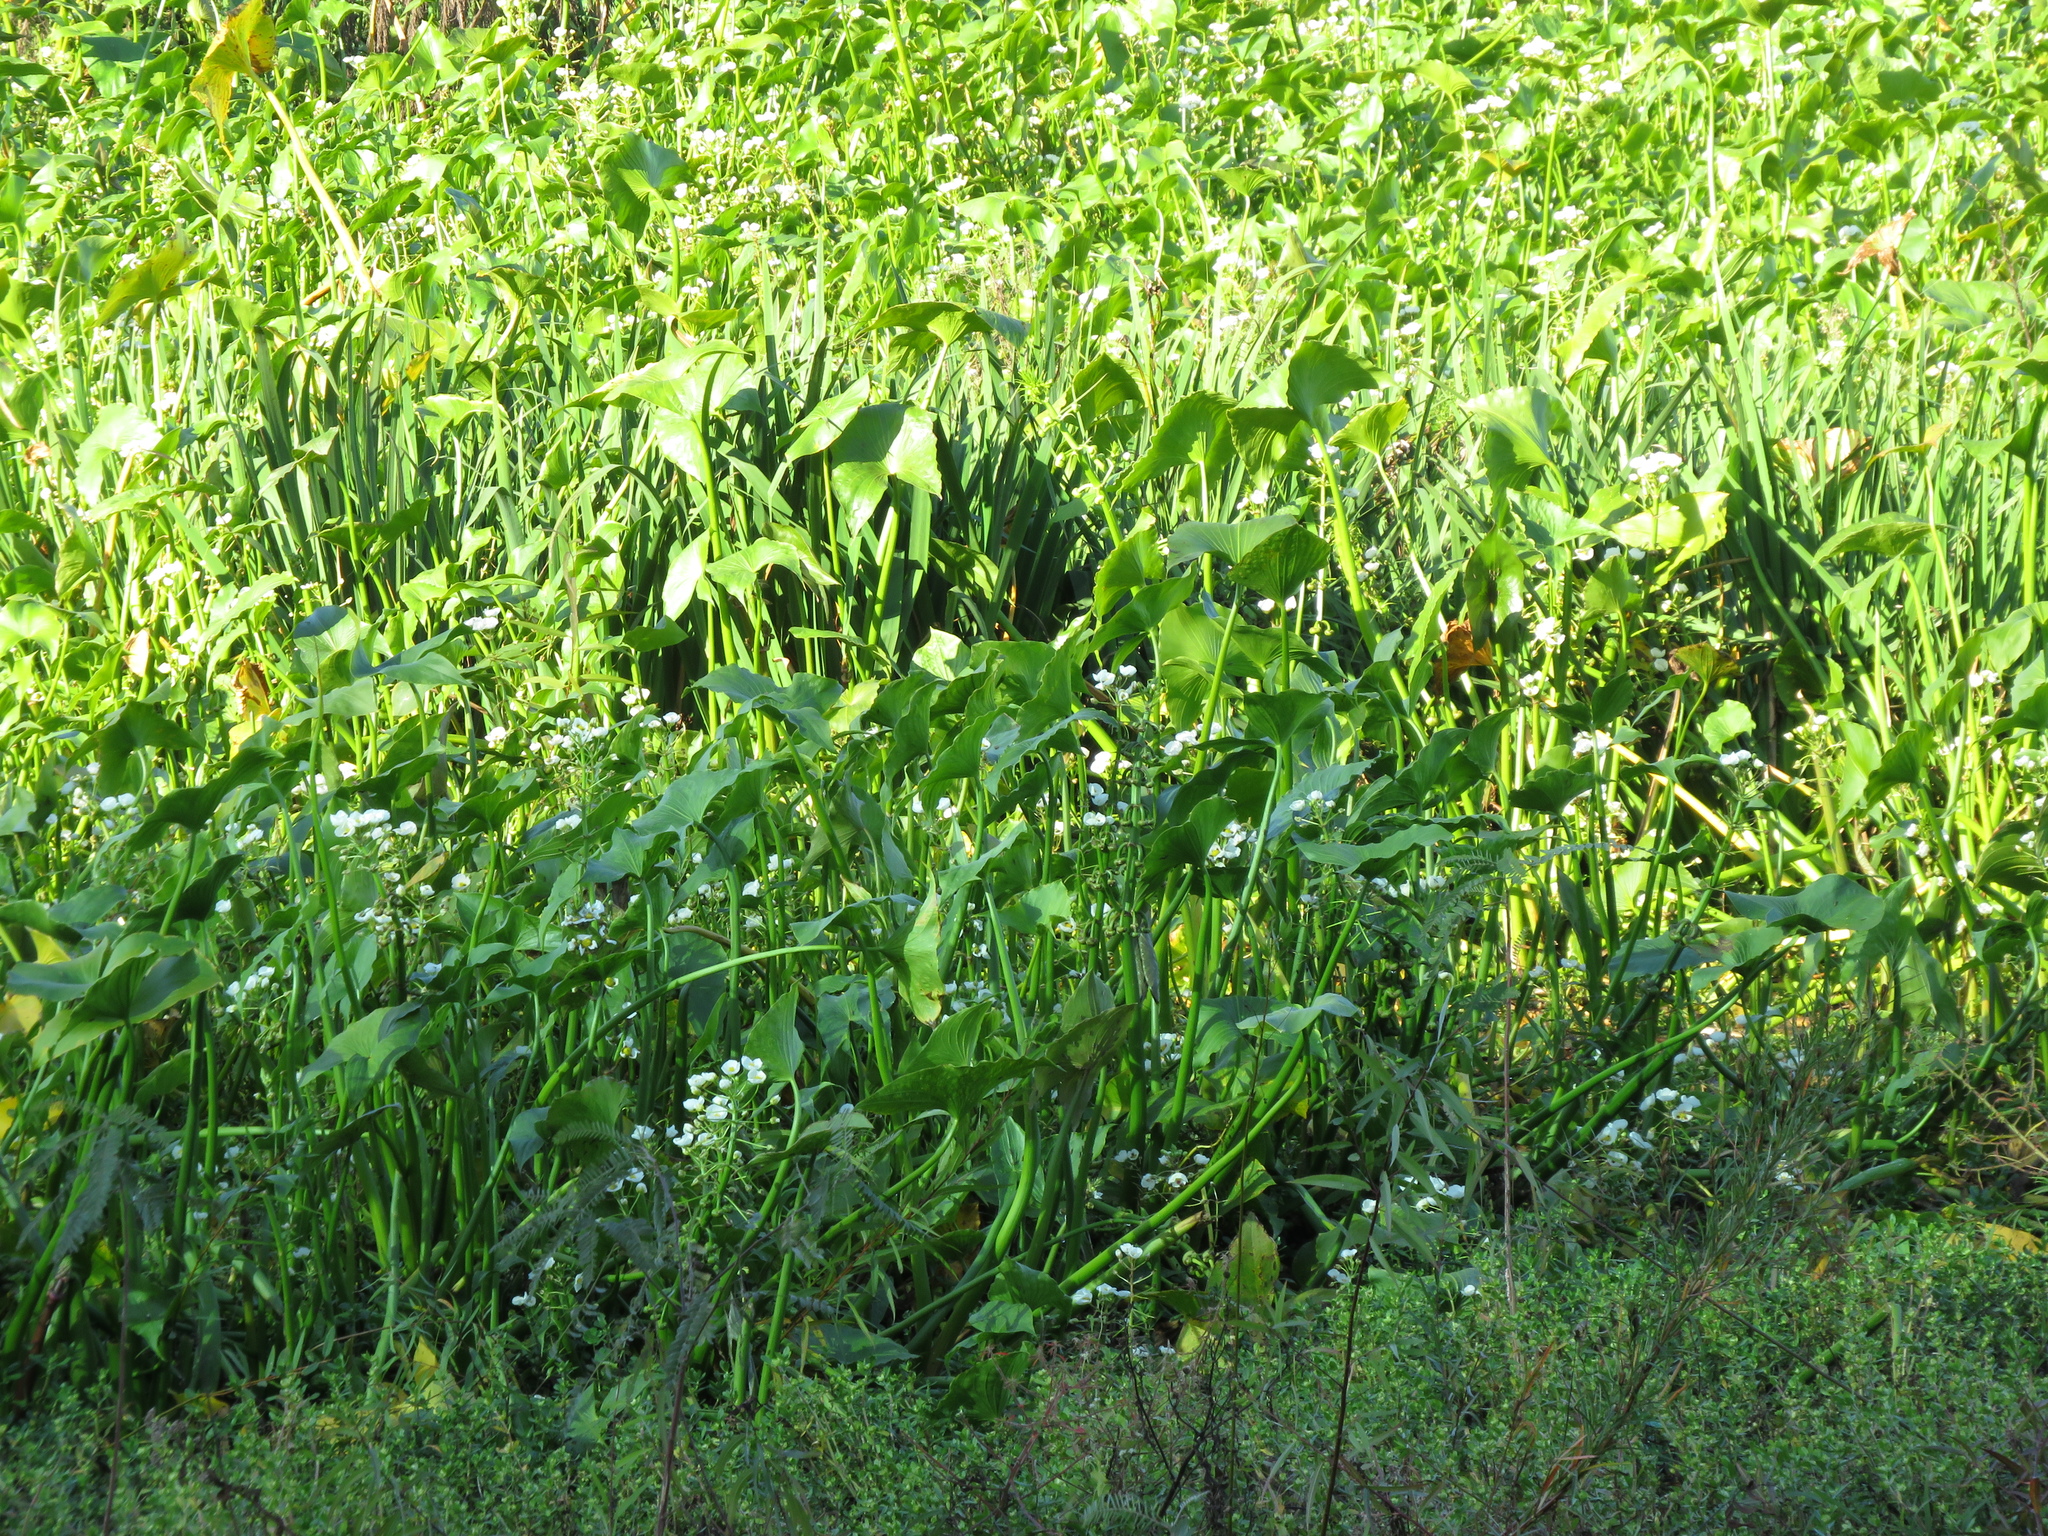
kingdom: Plantae
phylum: Tracheophyta
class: Liliopsida
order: Alismatales
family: Alismataceae
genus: Sagittaria
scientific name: Sagittaria montevidensis
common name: Giant arrowhead
